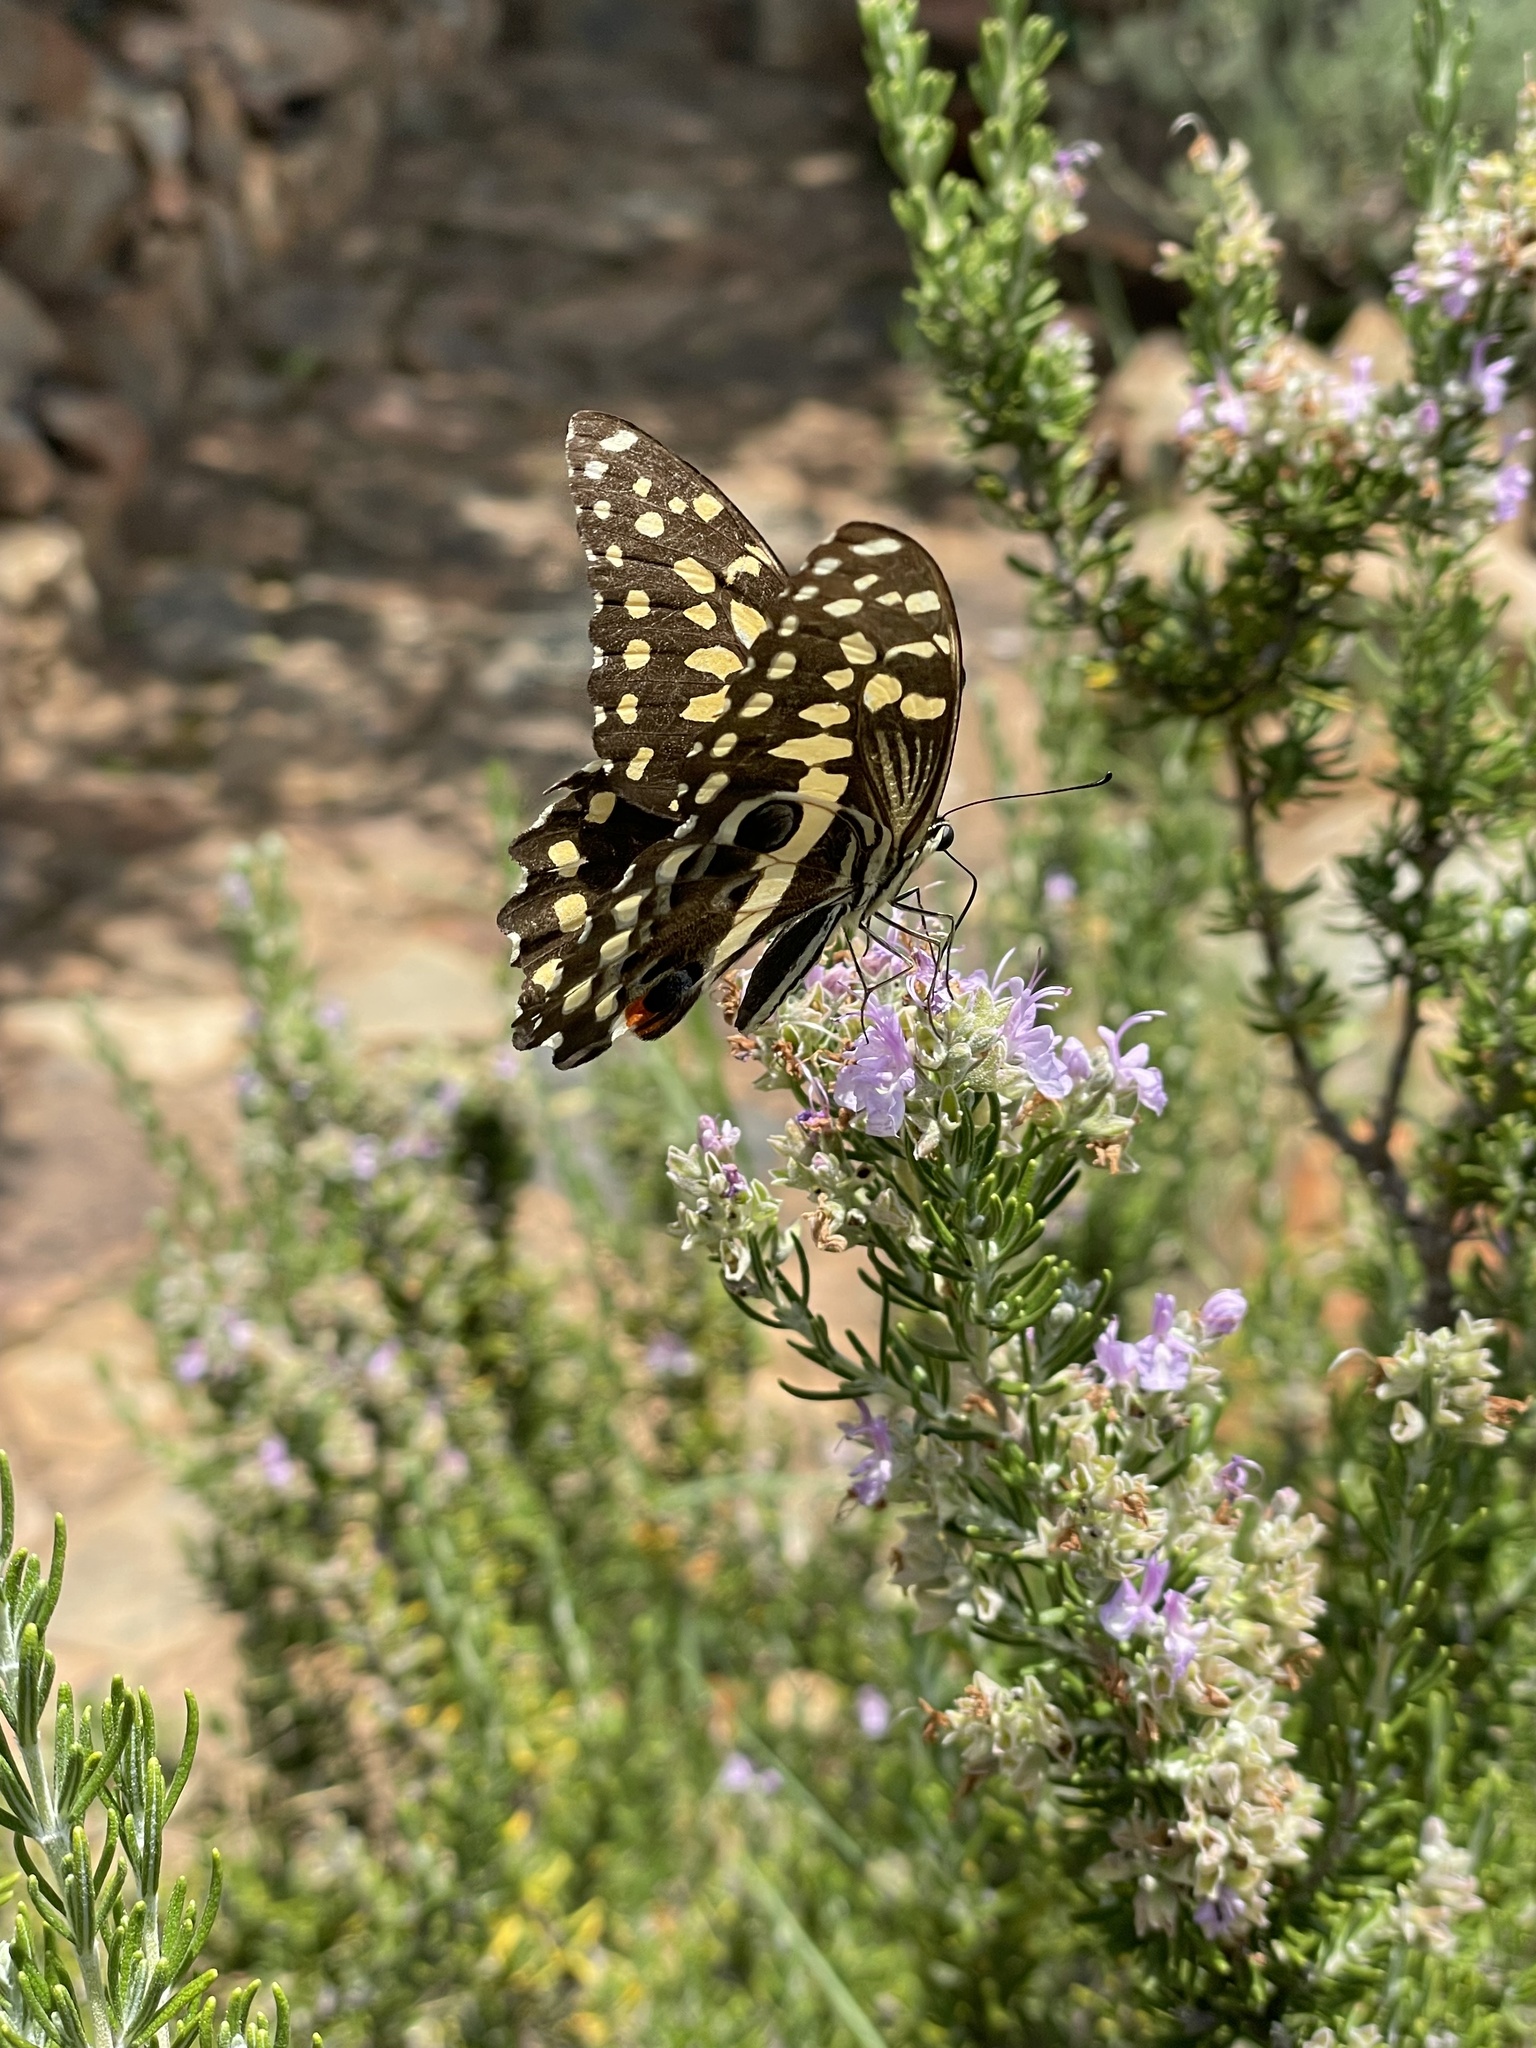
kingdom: Animalia
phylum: Arthropoda
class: Insecta
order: Lepidoptera
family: Papilionidae
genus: Papilio
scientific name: Papilio demodocus
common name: Christmas butterfly
